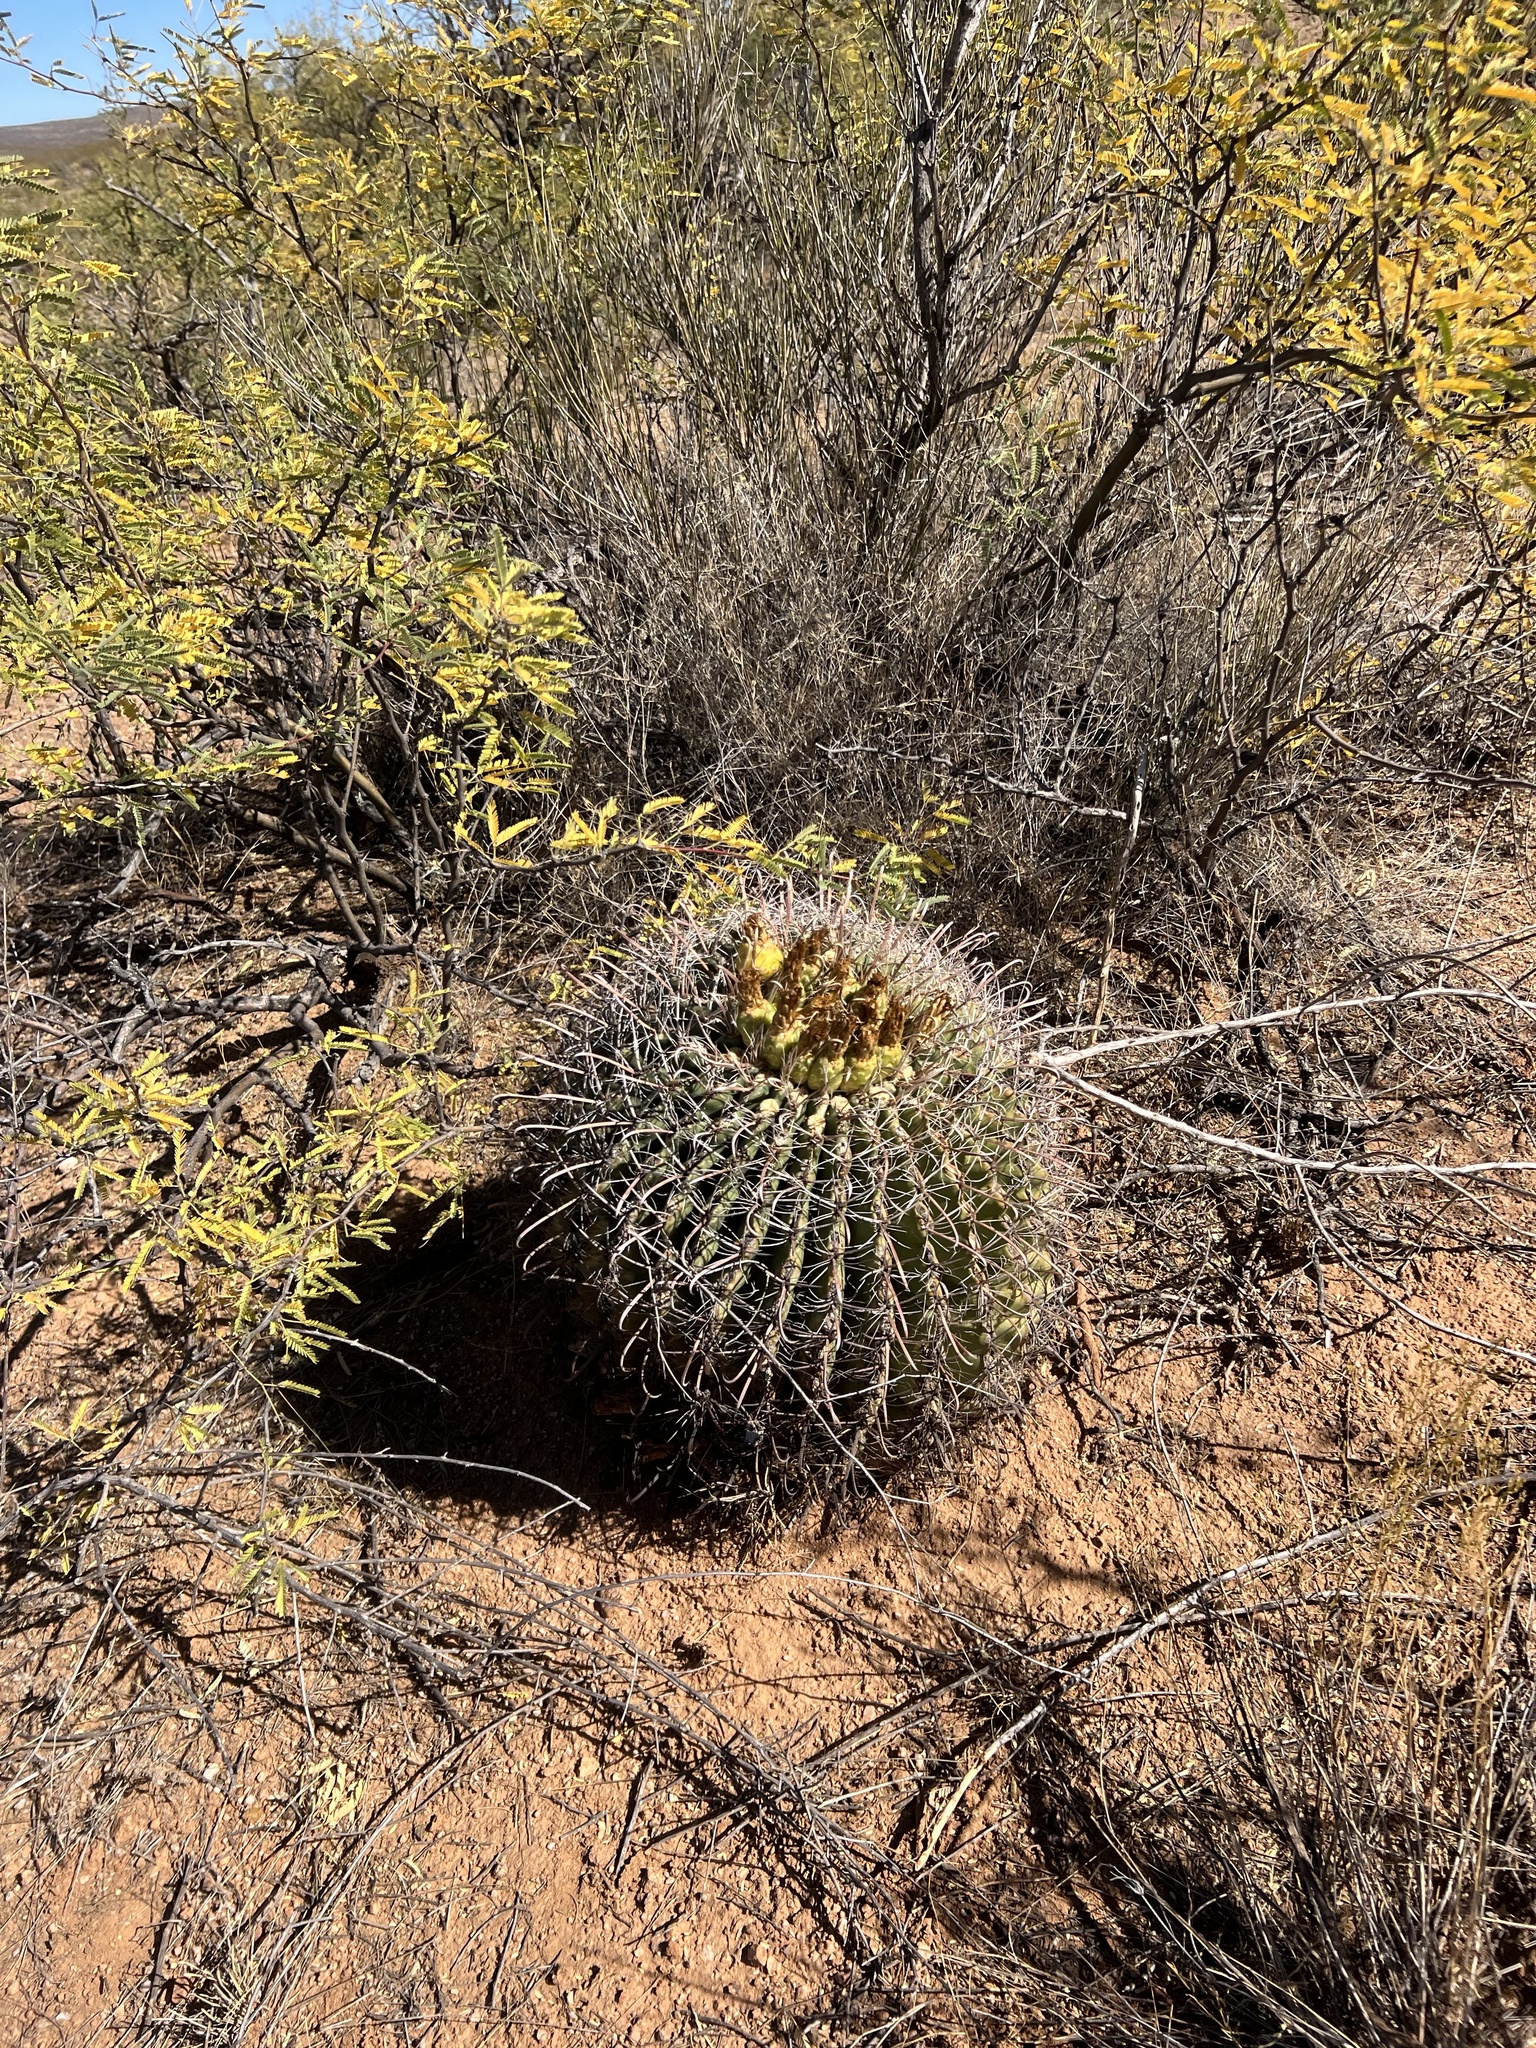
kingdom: Plantae
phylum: Tracheophyta
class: Magnoliopsida
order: Caryophyllales
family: Cactaceae
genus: Ferocactus
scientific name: Ferocactus wislizeni
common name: Candy barrel cactus
